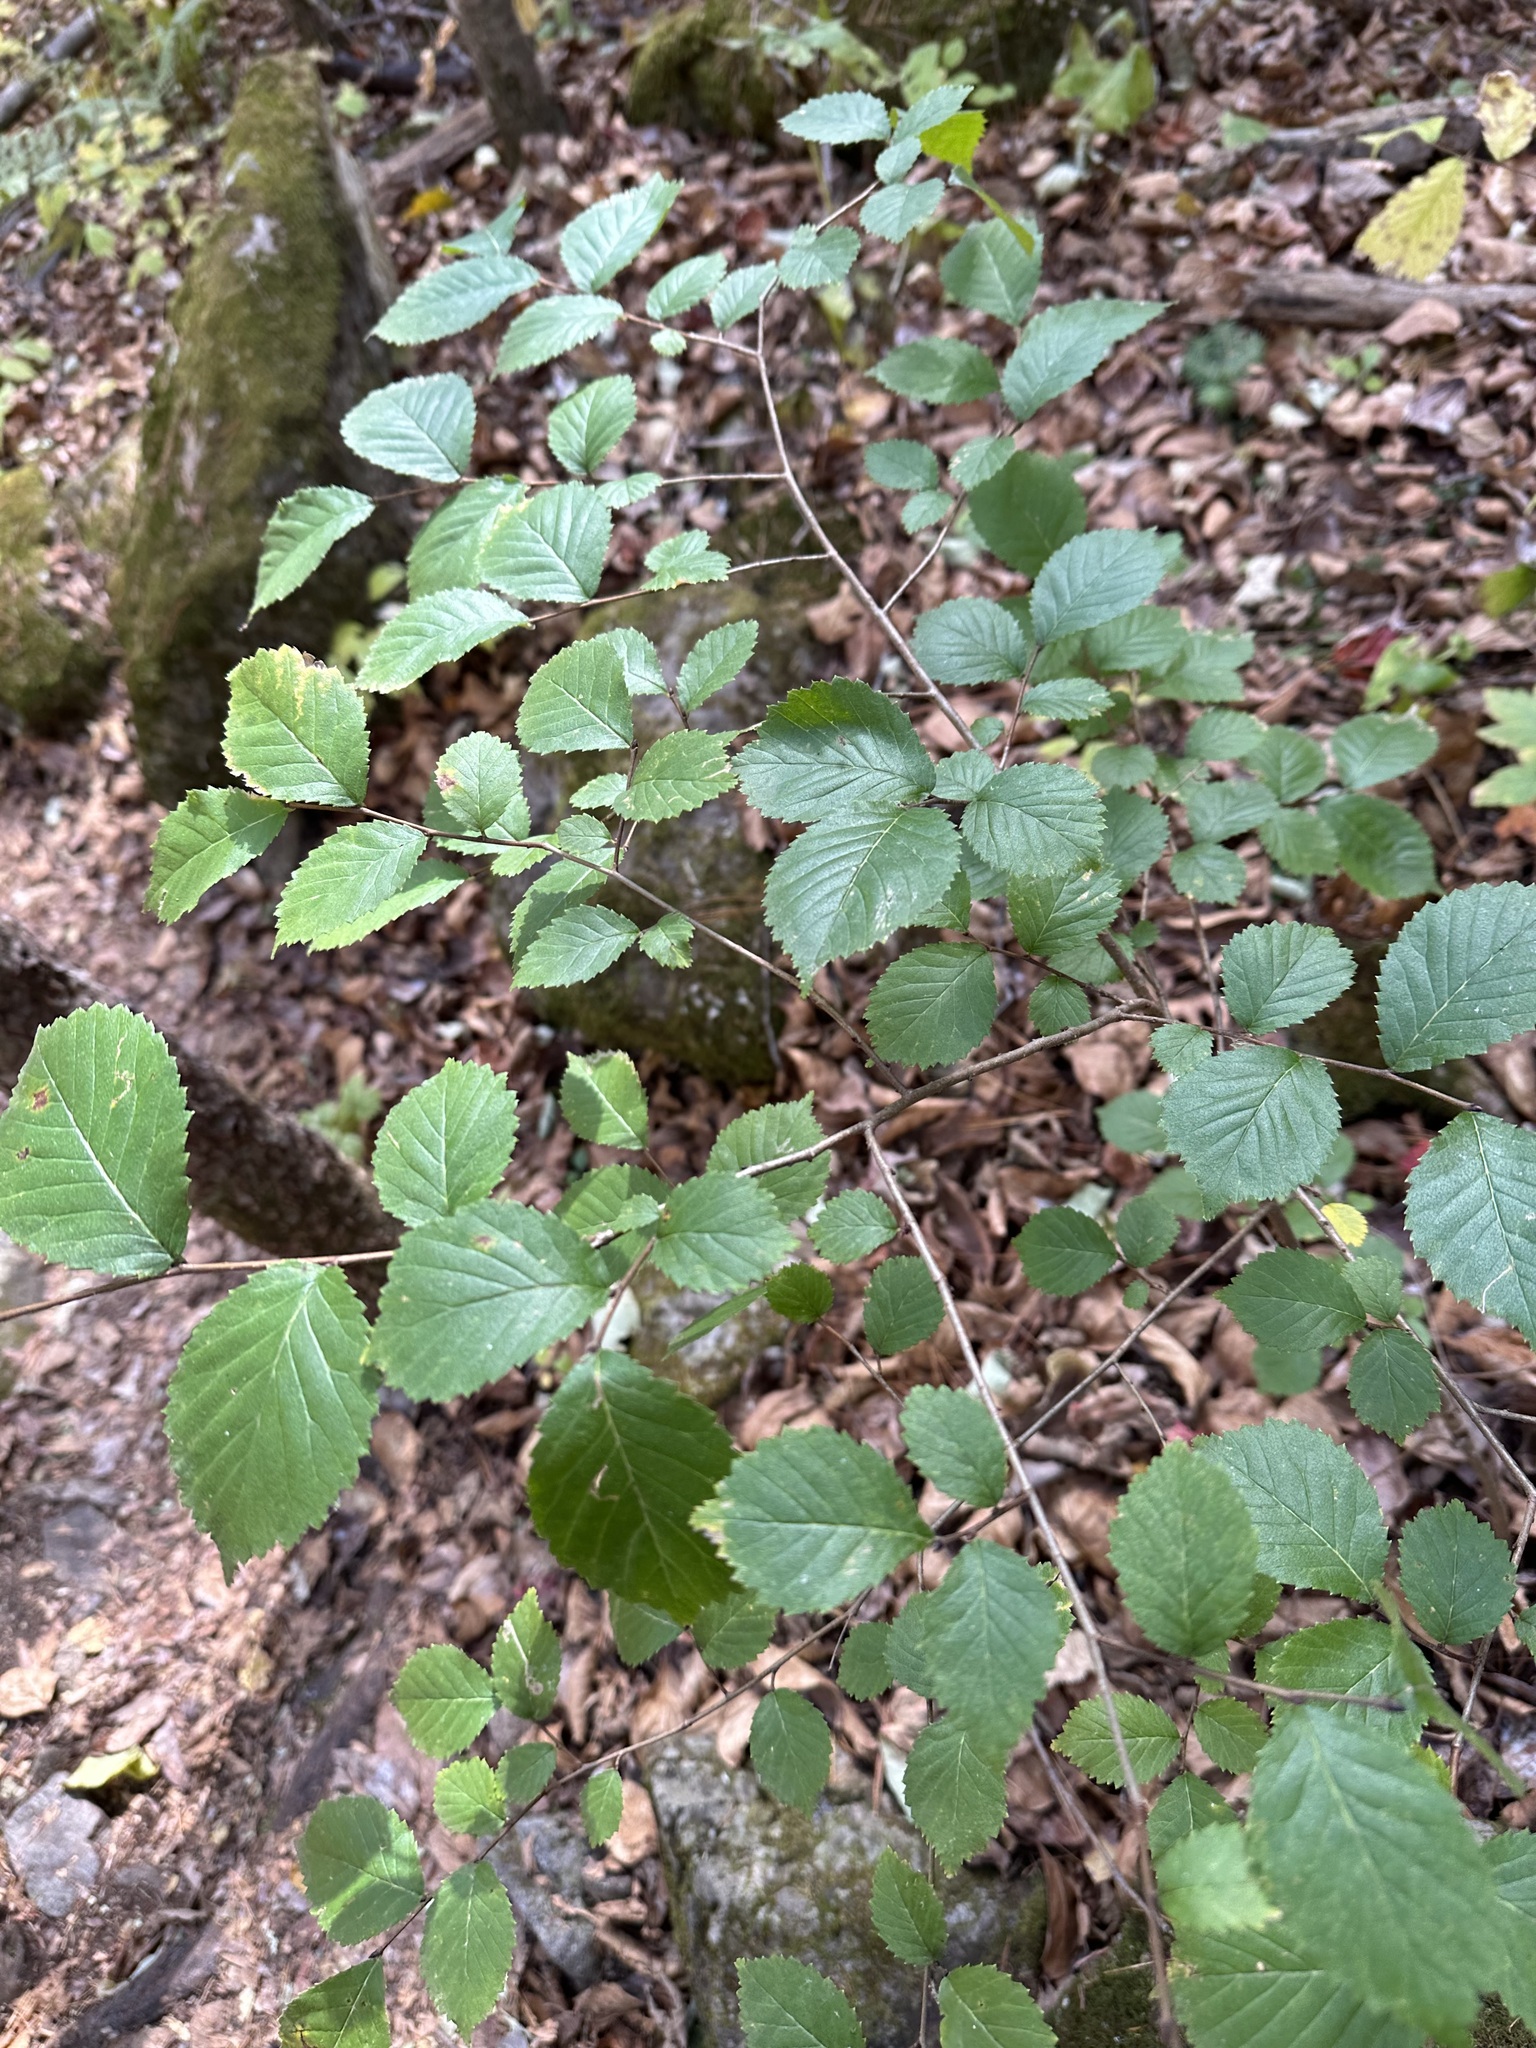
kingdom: Plantae
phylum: Tracheophyta
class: Magnoliopsida
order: Rosales
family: Ulmaceae
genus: Ulmus
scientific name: Ulmus davidiana
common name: Japanese elm
